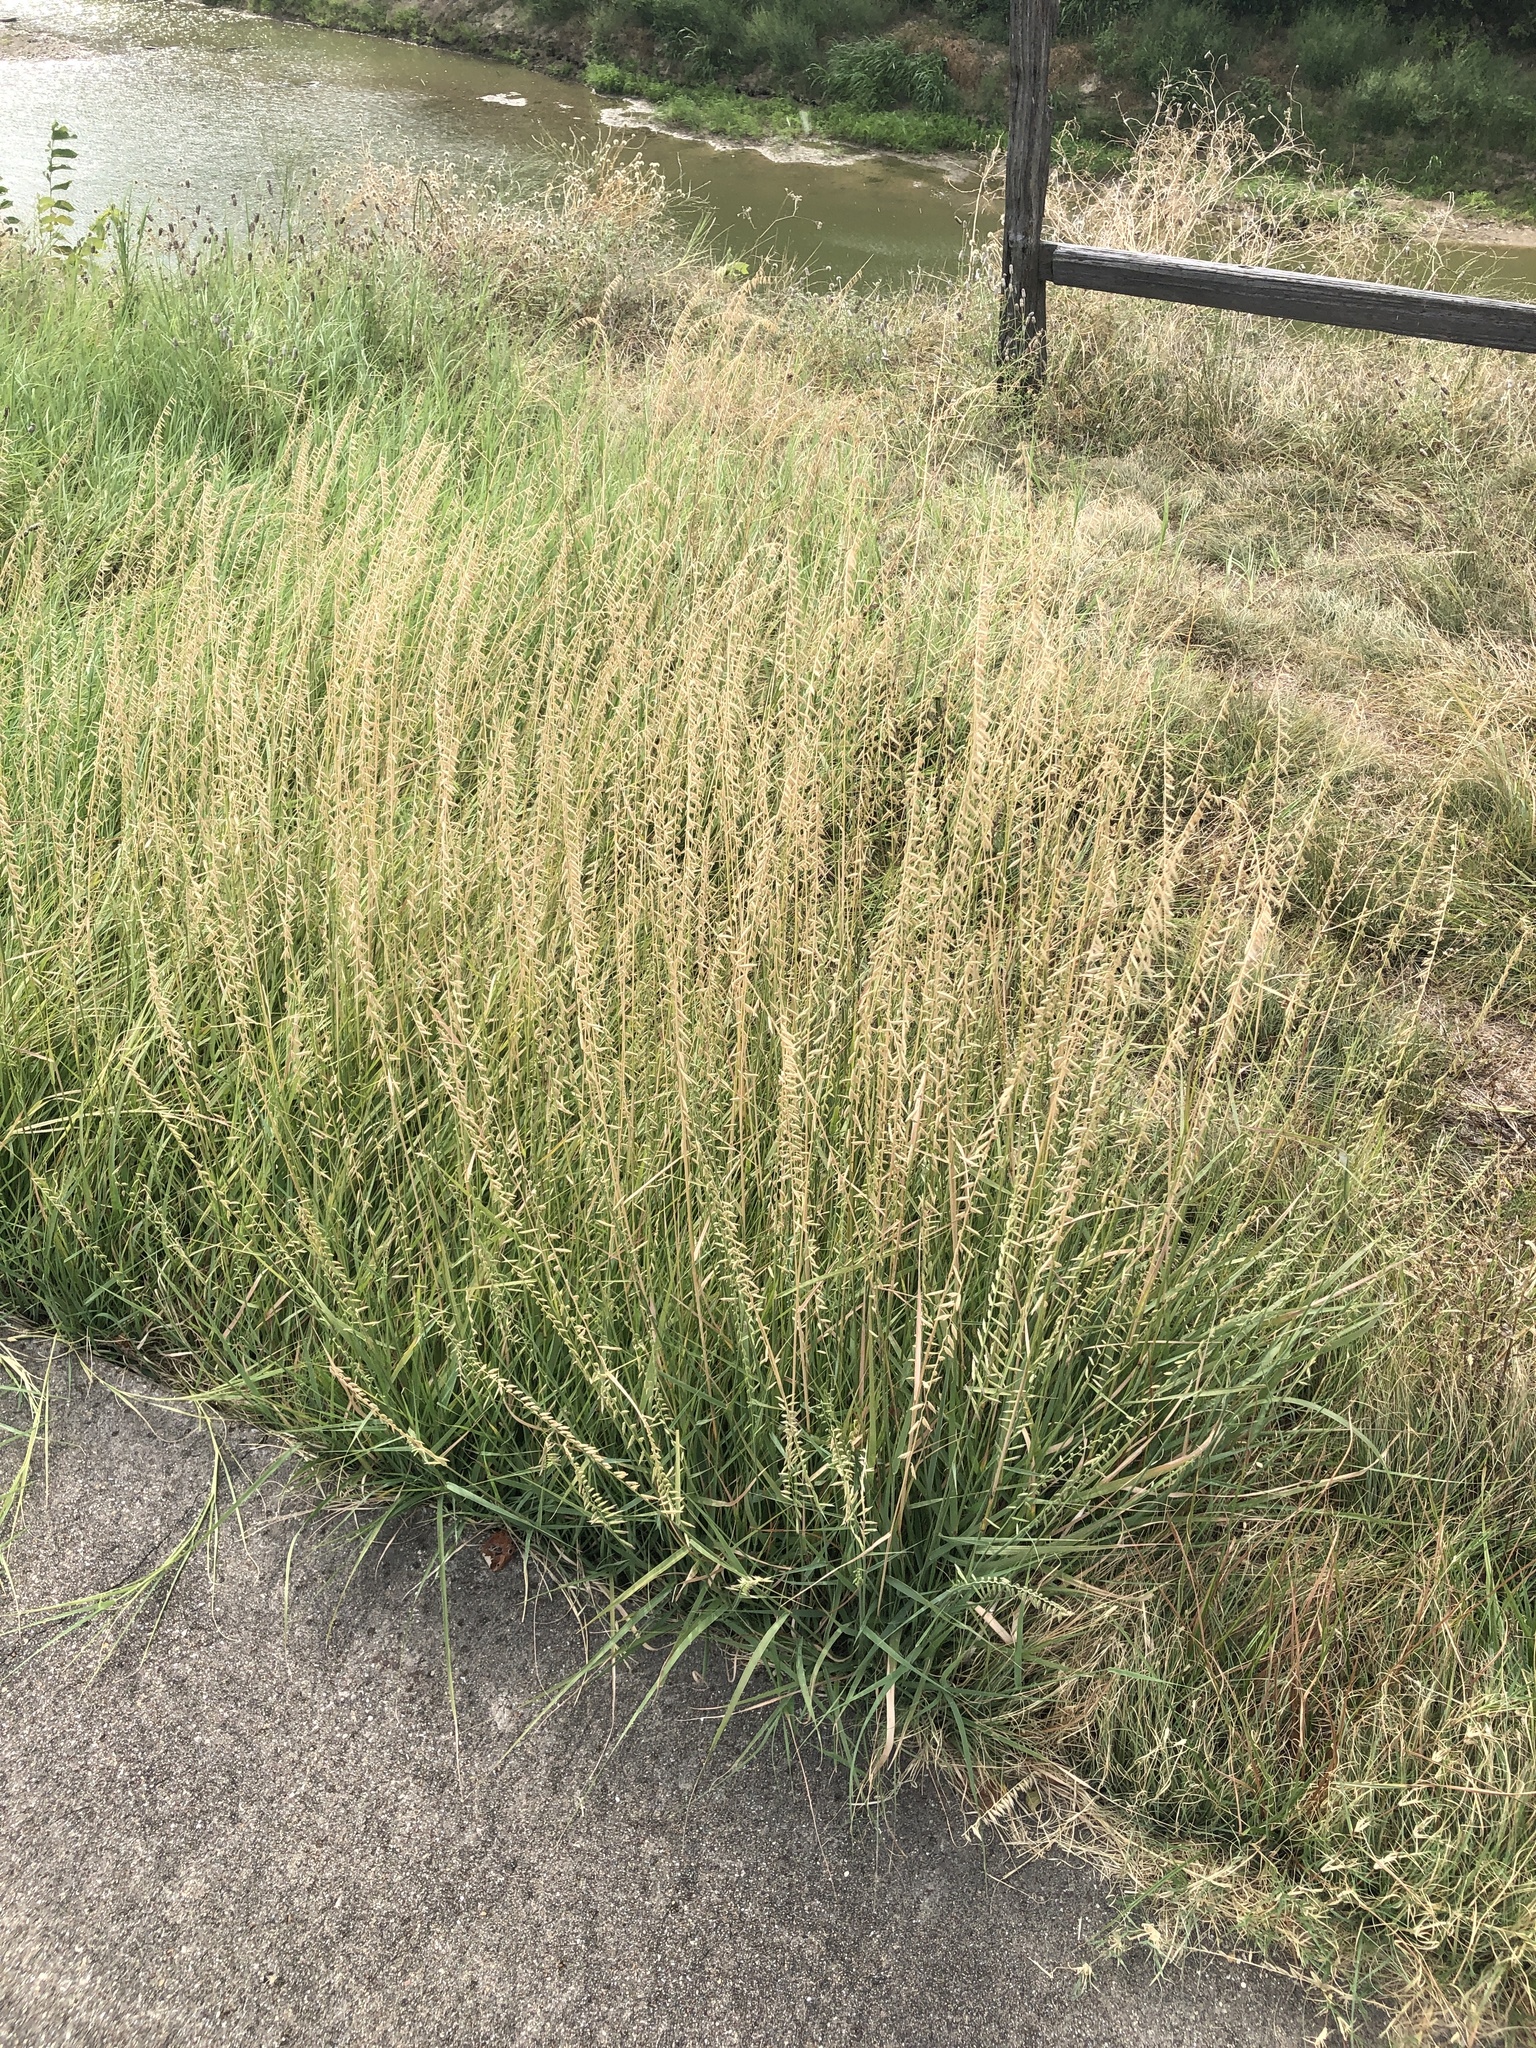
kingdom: Plantae
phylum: Tracheophyta
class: Liliopsida
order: Poales
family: Poaceae
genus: Bouteloua
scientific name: Bouteloua curtipendula
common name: Side-oats grama
